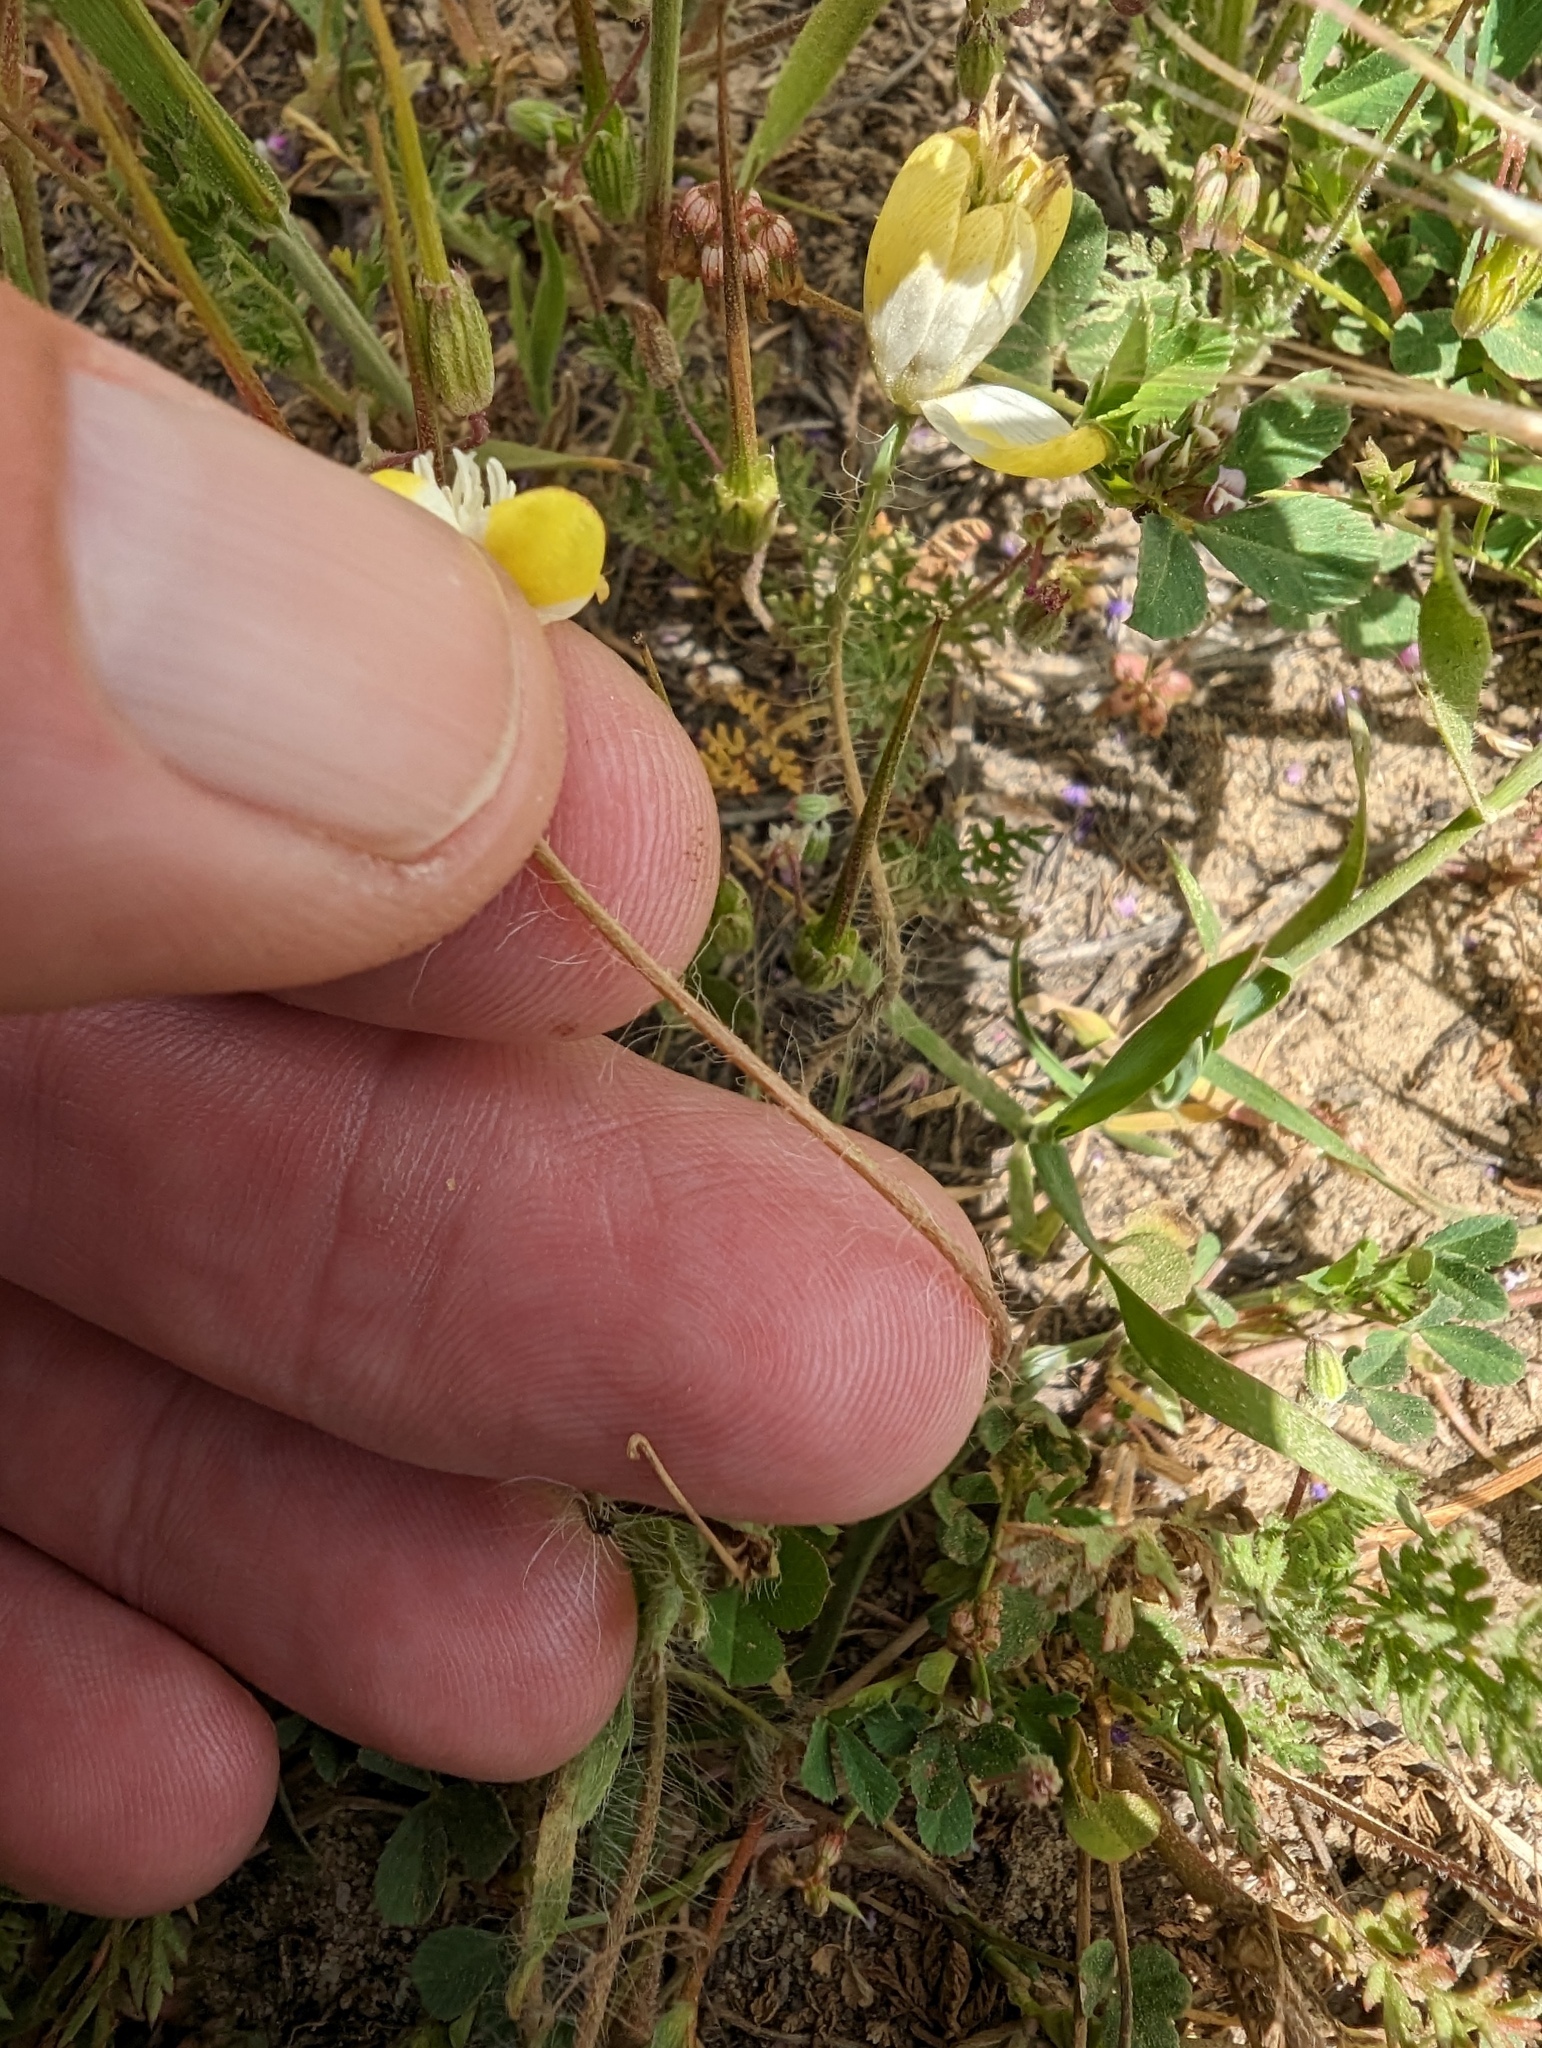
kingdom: Plantae
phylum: Tracheophyta
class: Magnoliopsida
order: Ranunculales
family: Papaveraceae
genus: Platystemon
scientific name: Platystemon californicus
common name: Cream-cups
